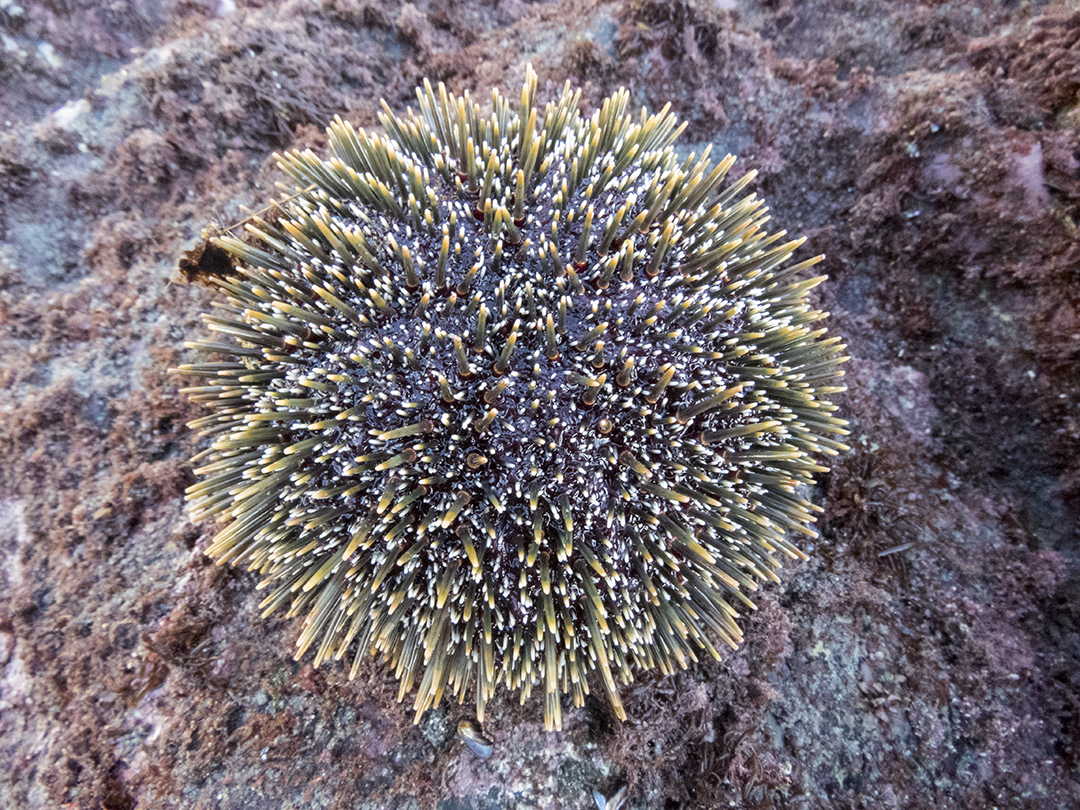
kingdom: Animalia
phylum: Echinodermata
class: Echinoidea
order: Camarodonta
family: Echinometridae
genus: Evechinus
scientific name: Evechinus chloroticus
